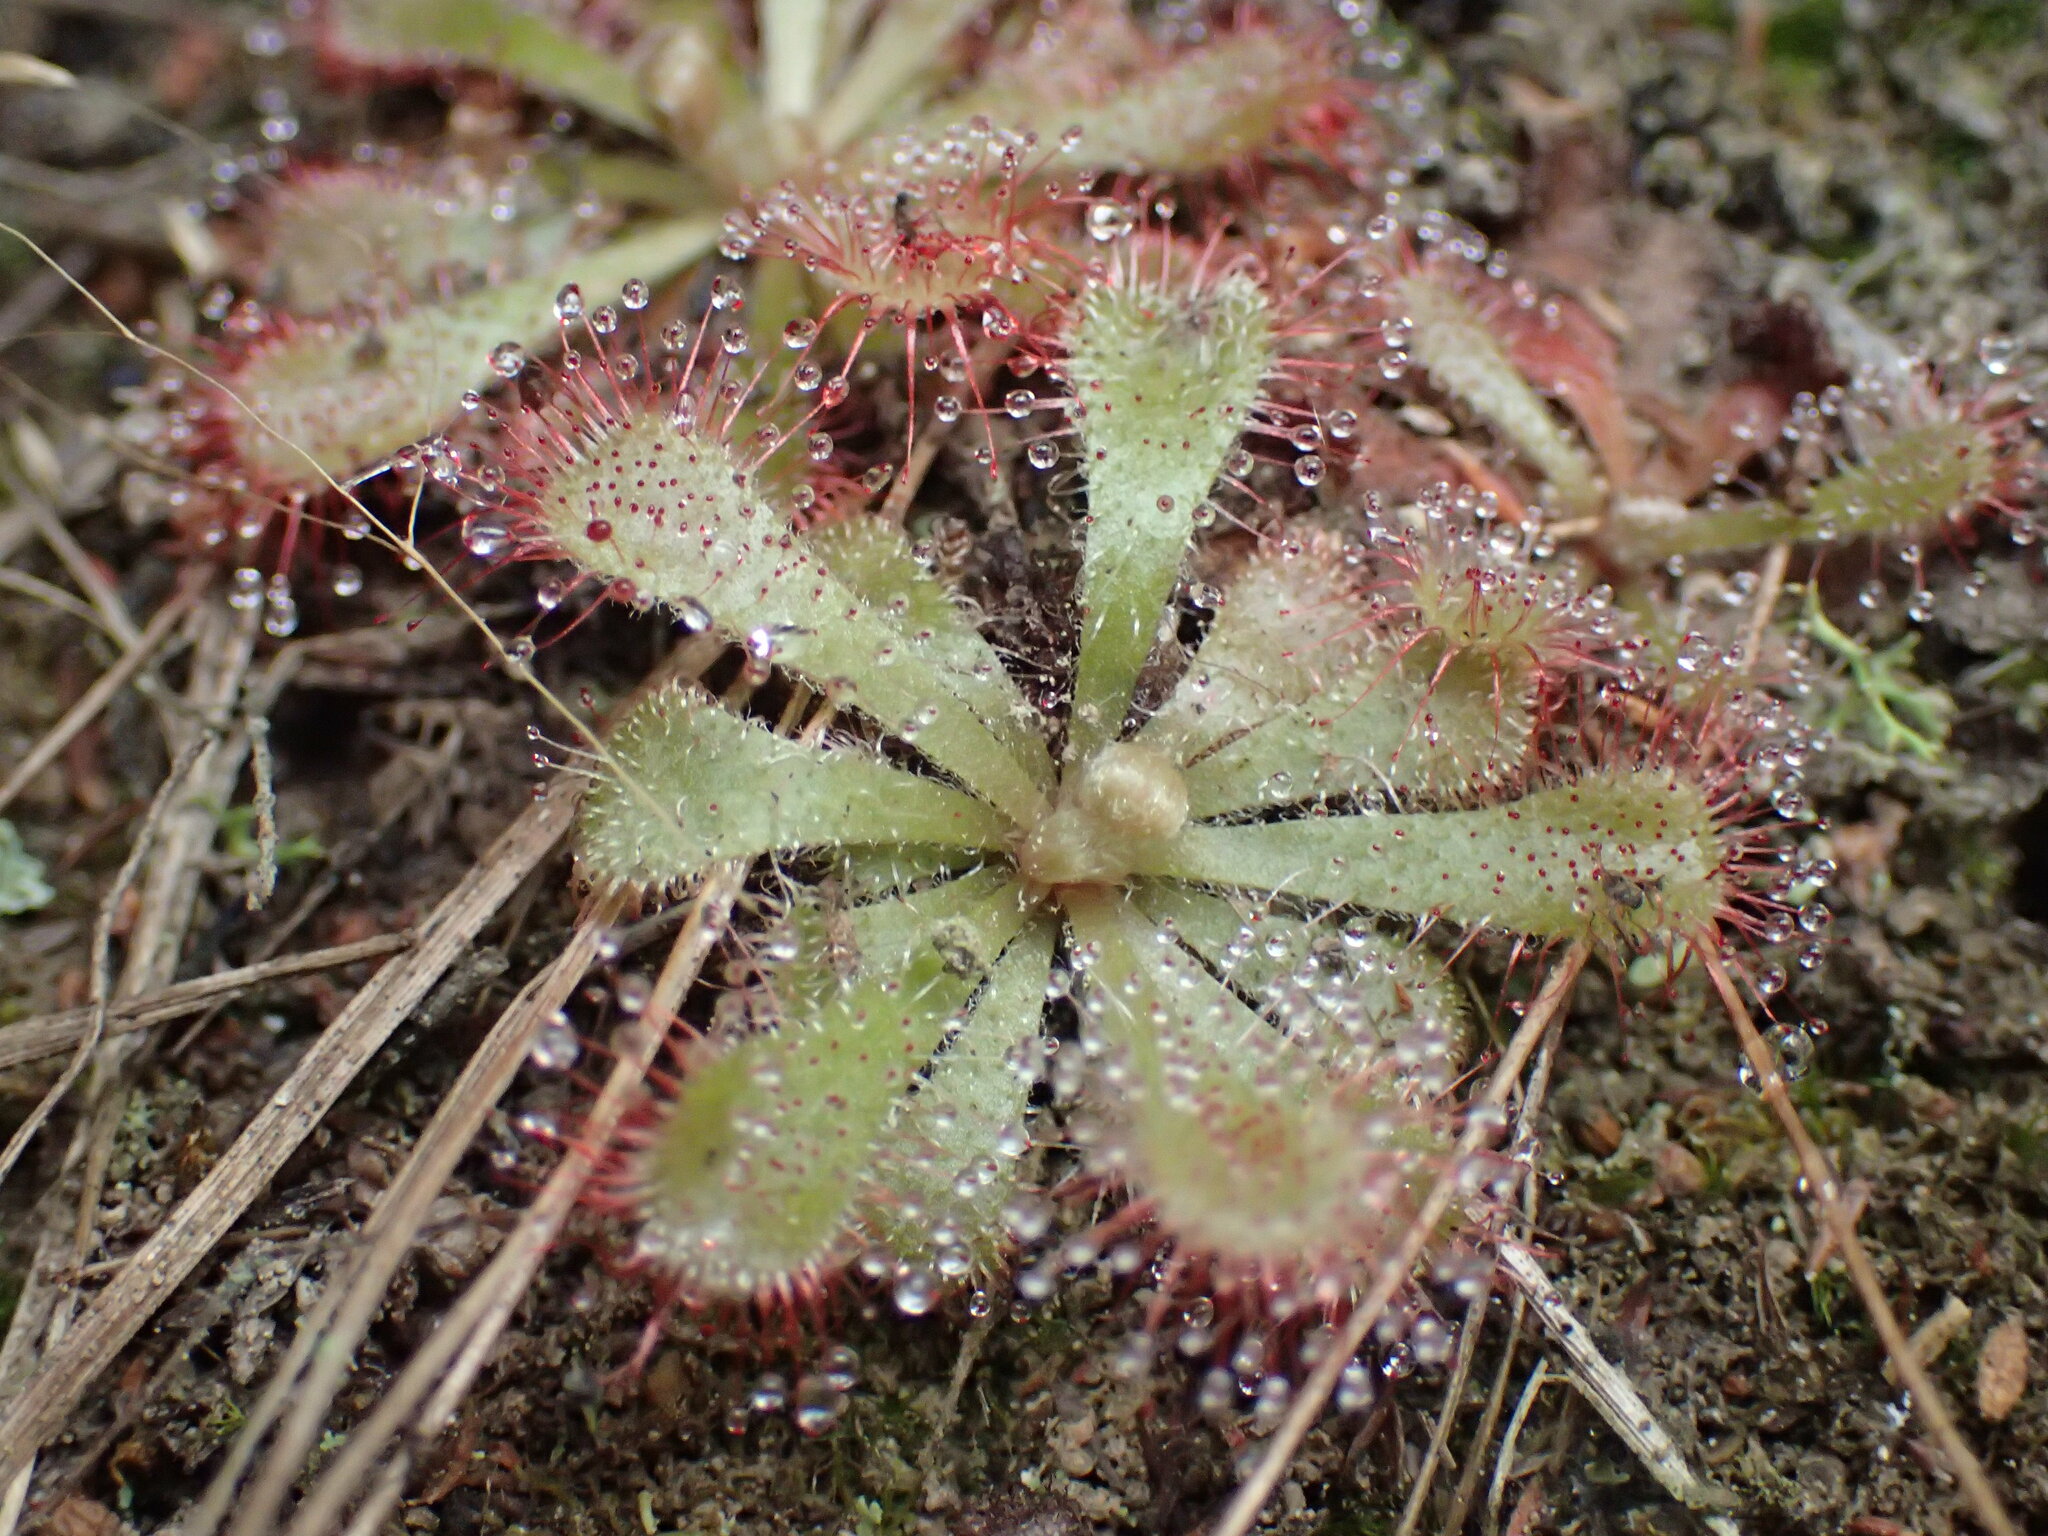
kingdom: Plantae
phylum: Tracheophyta
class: Magnoliopsida
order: Caryophyllales
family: Droseraceae
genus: Drosera
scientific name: Drosera aliciae
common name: Alice sundew
